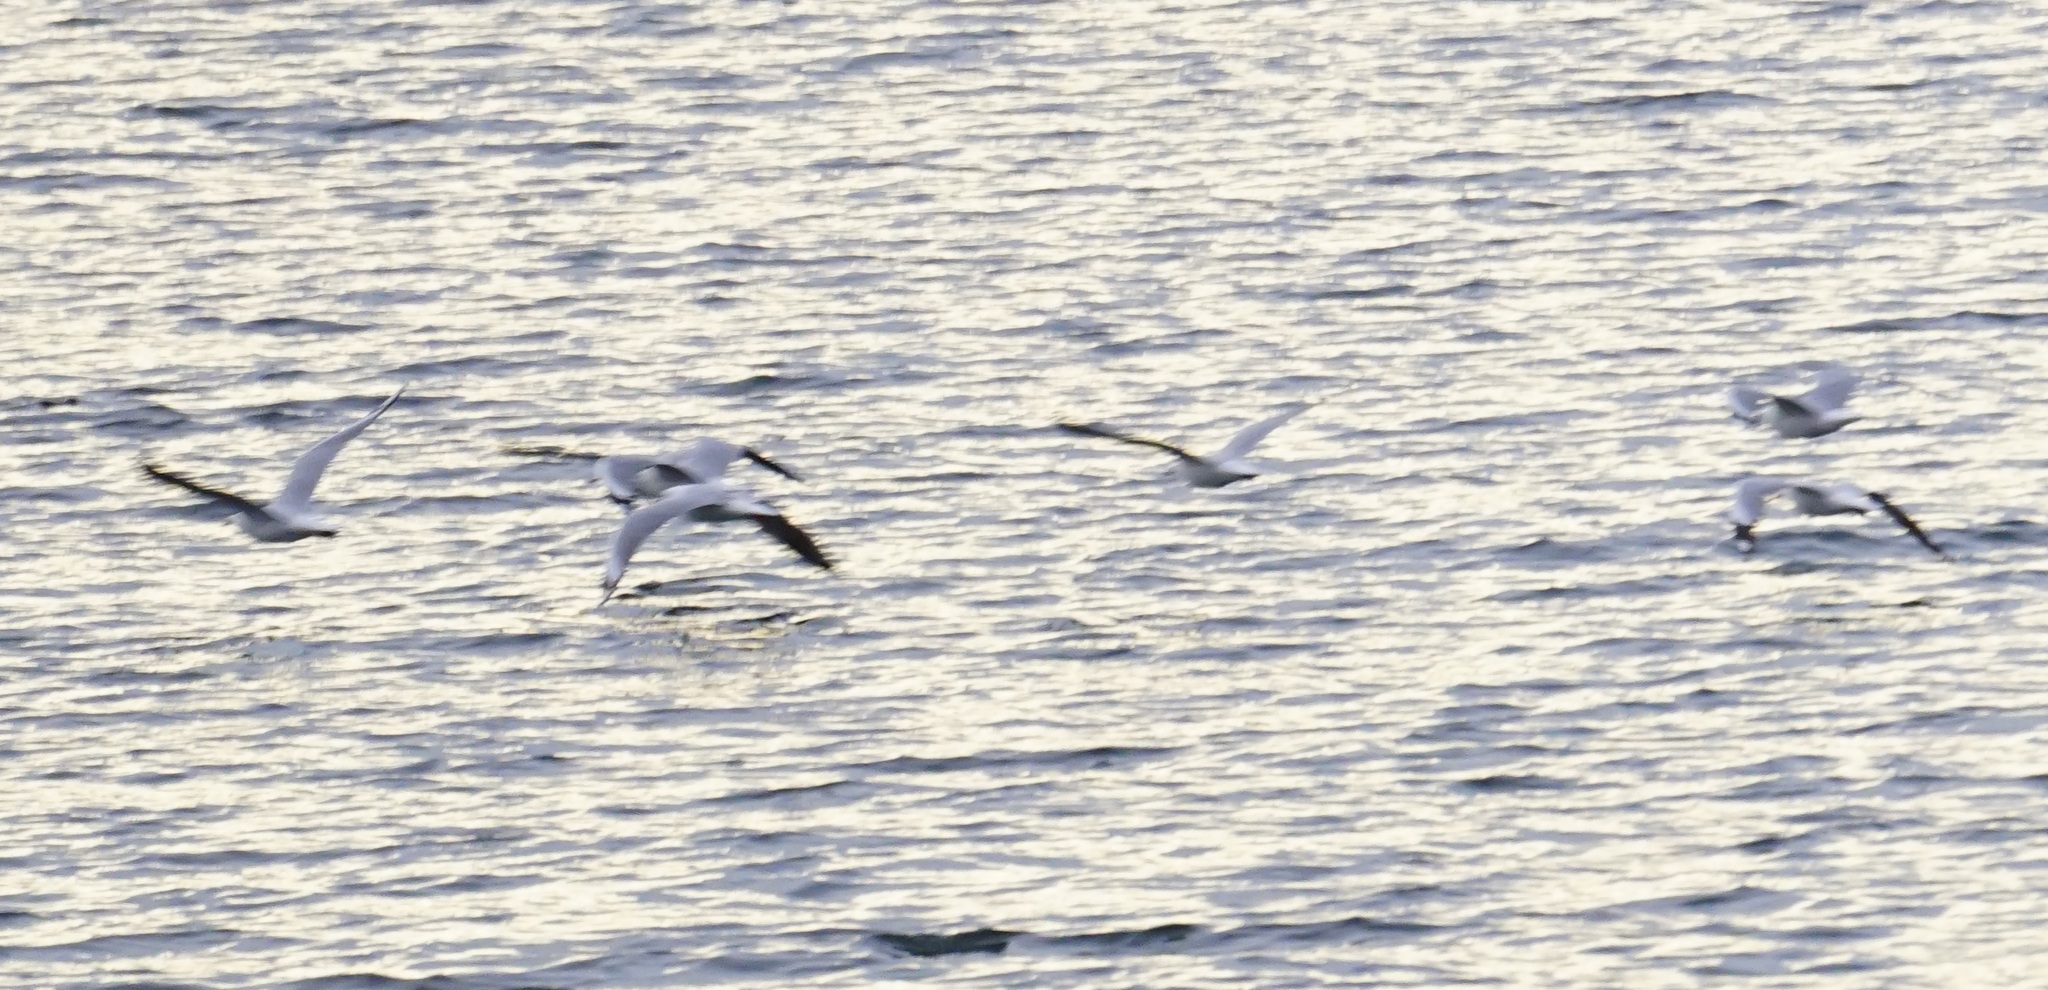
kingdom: Animalia
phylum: Chordata
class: Aves
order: Charadriiformes
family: Laridae
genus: Chroicocephalus
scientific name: Chroicocephalus novaehollandiae
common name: Silver gull
